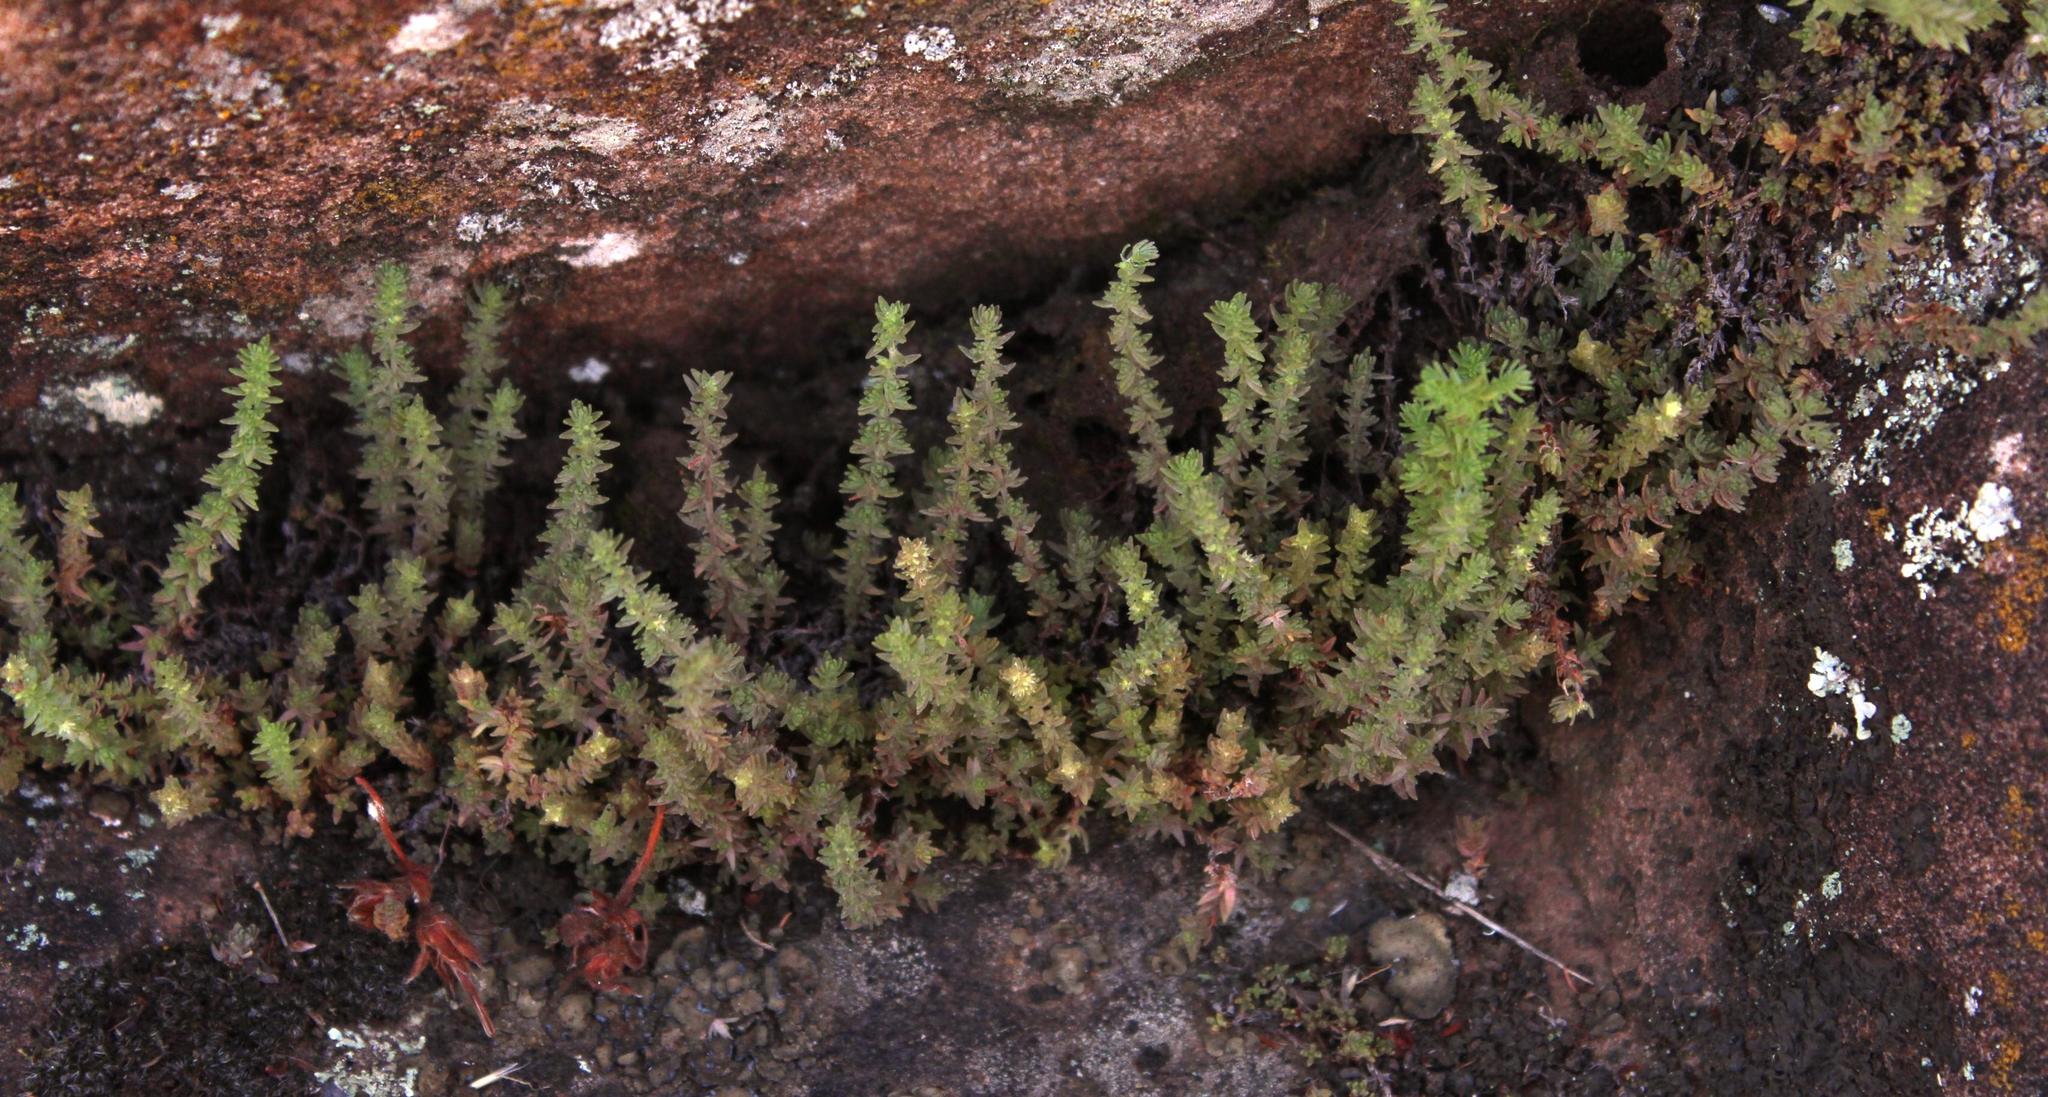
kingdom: Plantae
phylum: Tracheophyta
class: Magnoliopsida
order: Saxifragales
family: Crassulaceae
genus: Crassula
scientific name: Crassula lanceolata
